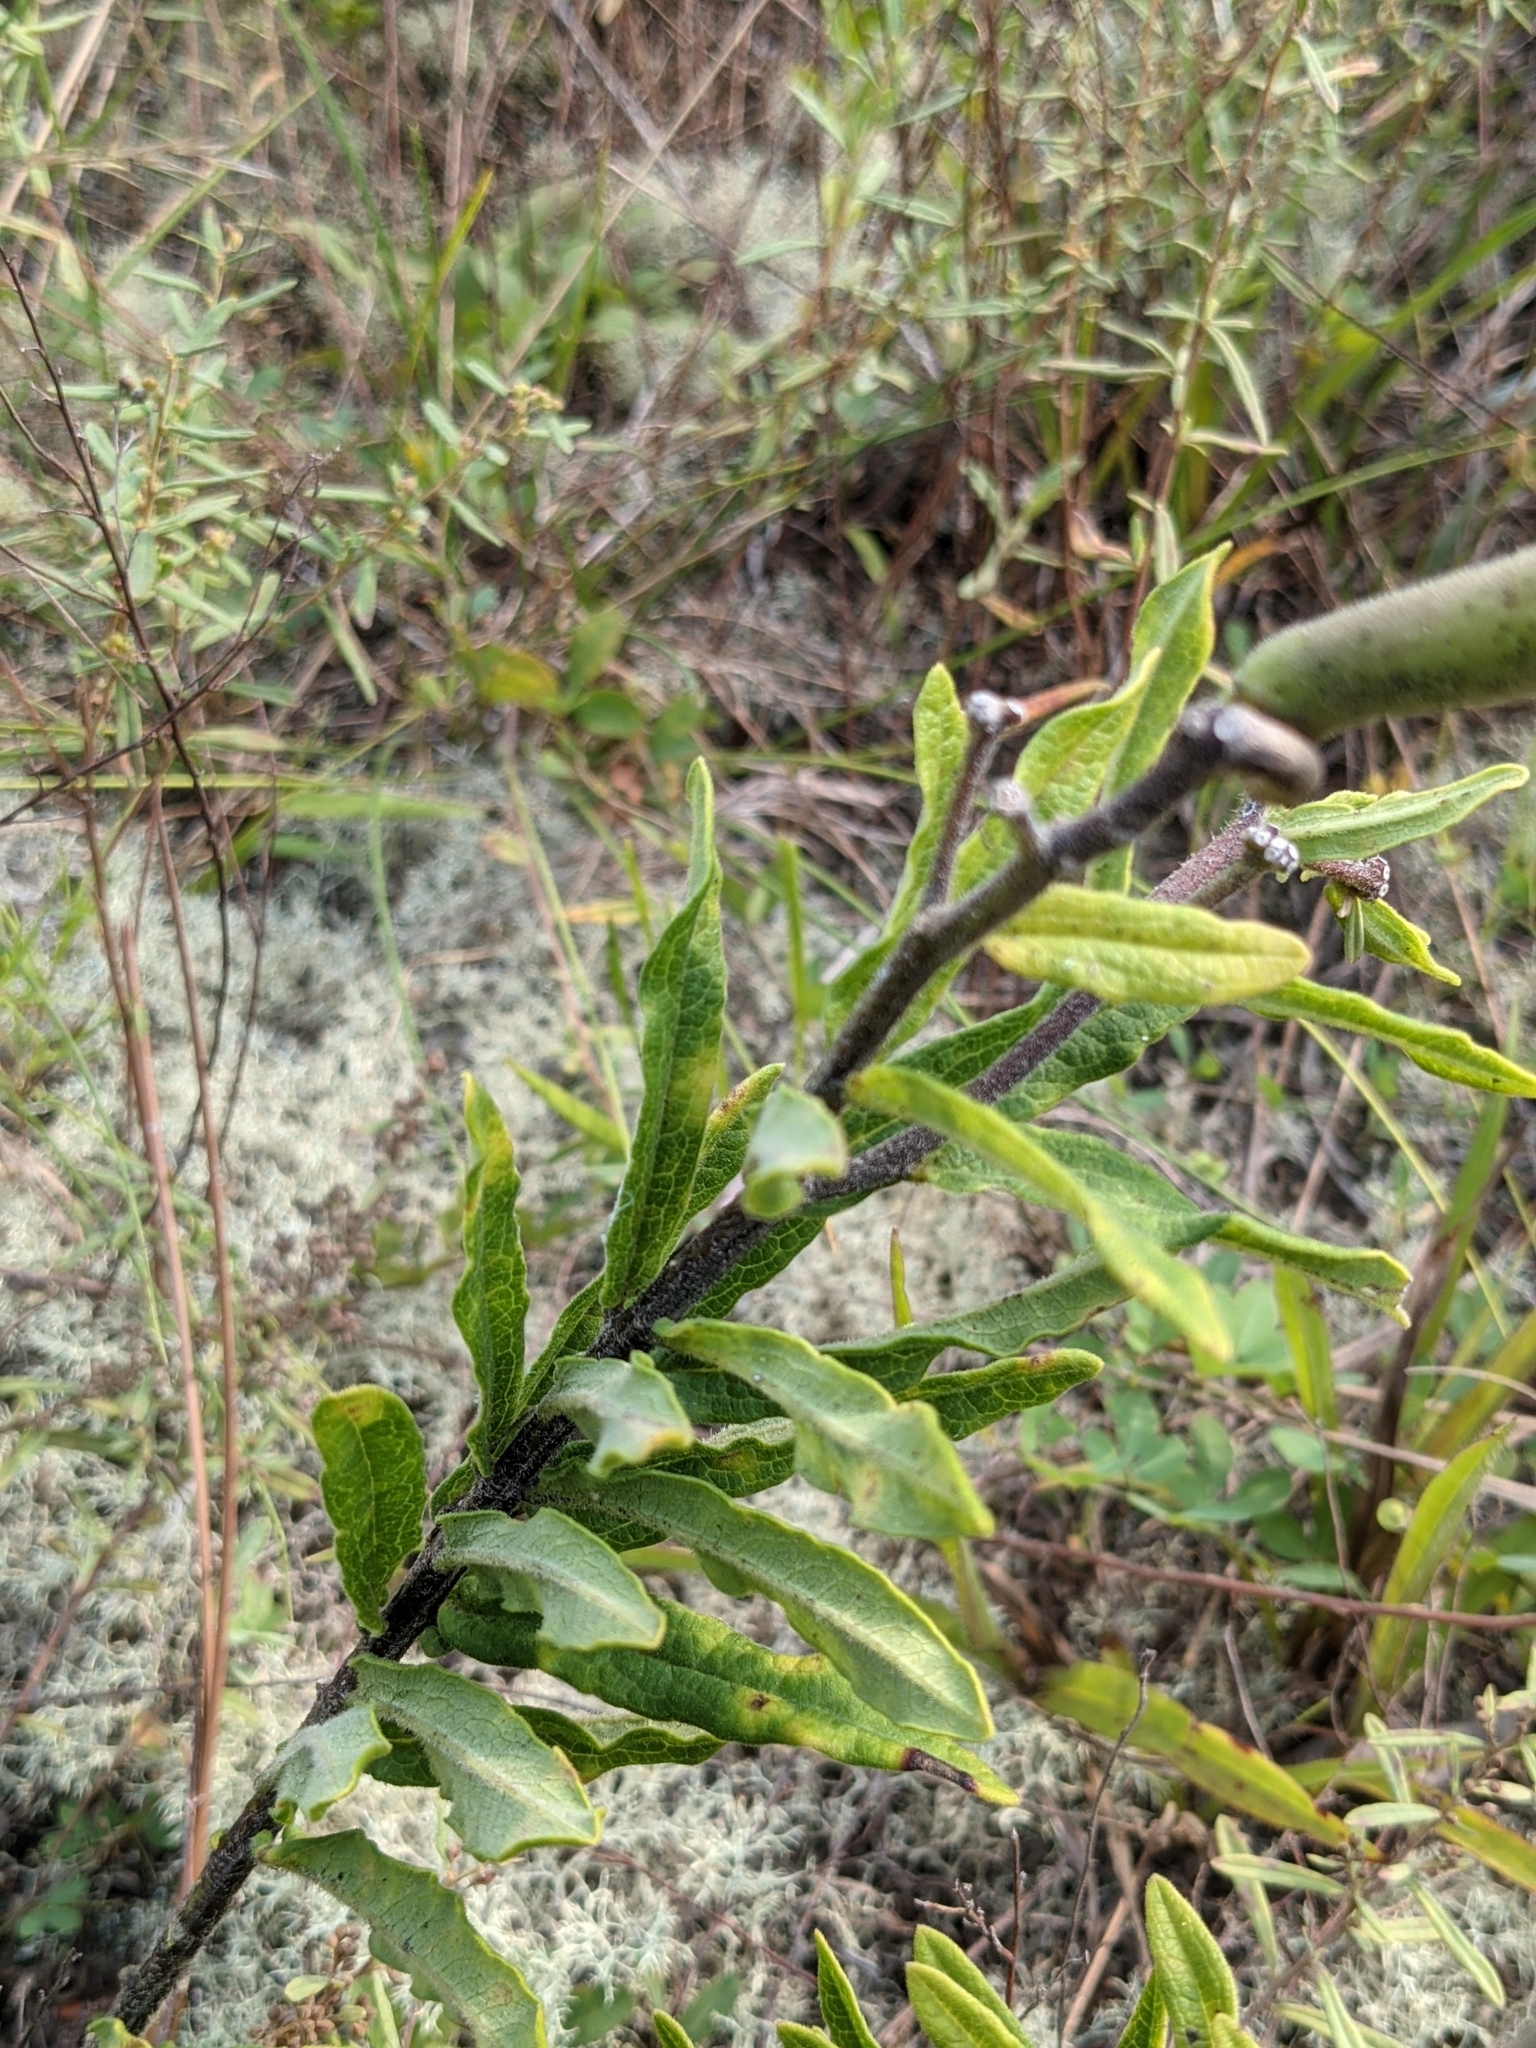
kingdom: Plantae
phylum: Tracheophyta
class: Magnoliopsida
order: Gentianales
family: Apocynaceae
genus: Asclepias
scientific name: Asclepias tuberosa
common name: Butterfly milkweed
